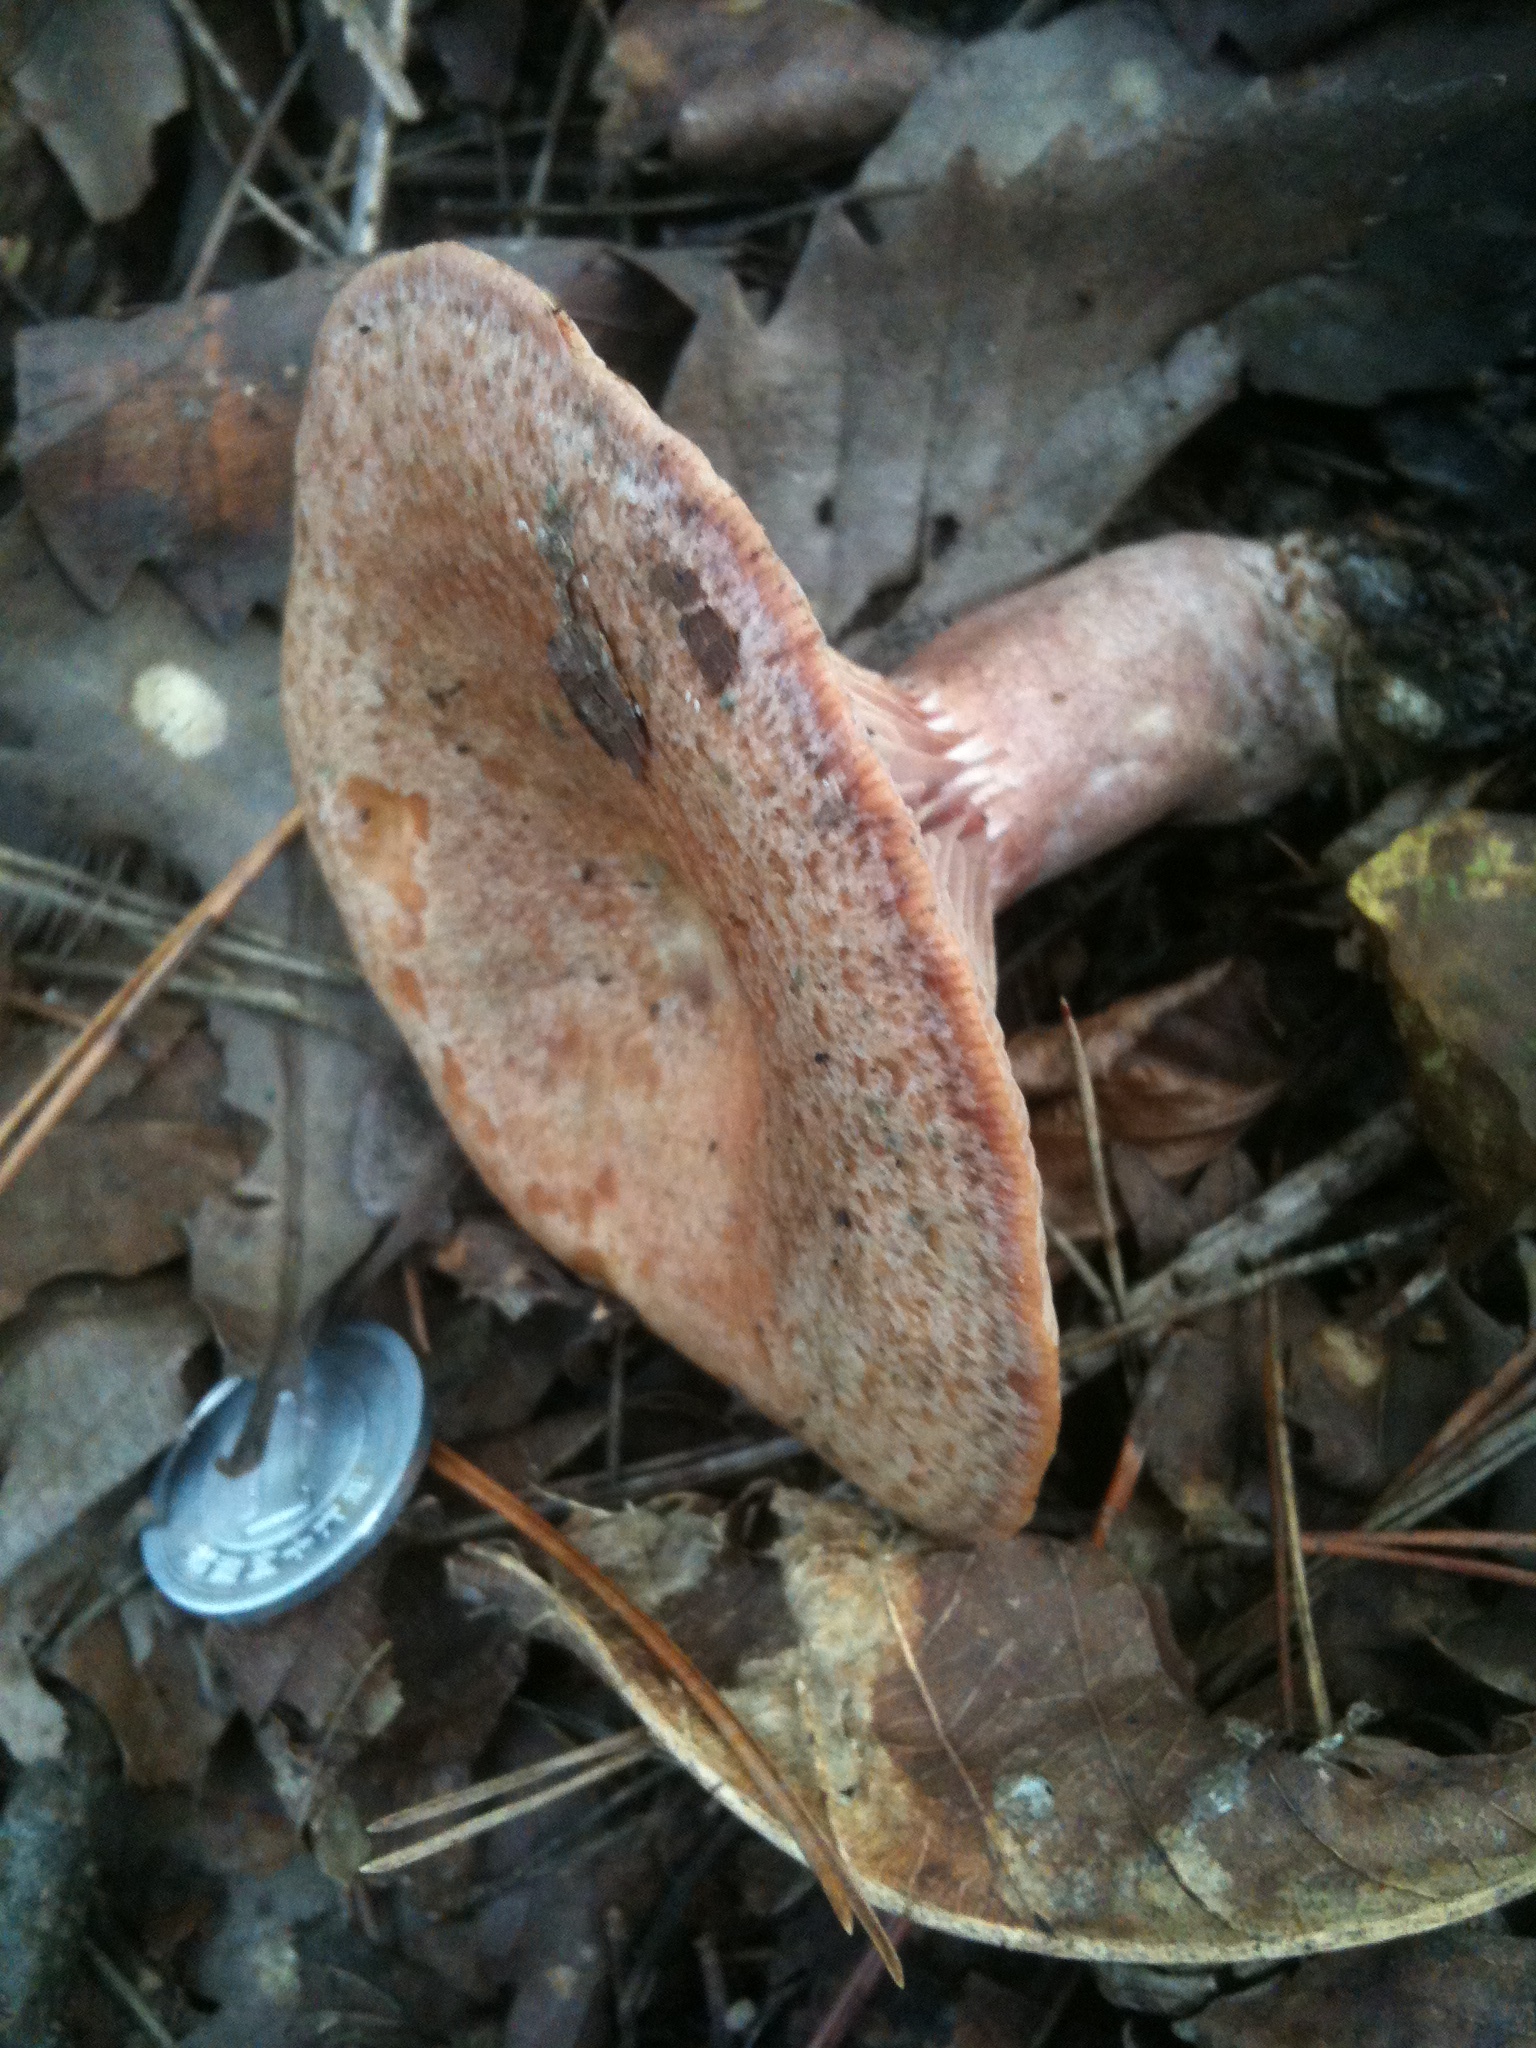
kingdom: Fungi
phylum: Basidiomycota
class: Agaricomycetes
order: Russulales
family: Russulaceae
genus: Lactarius
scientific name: Lactarius hatsudake
